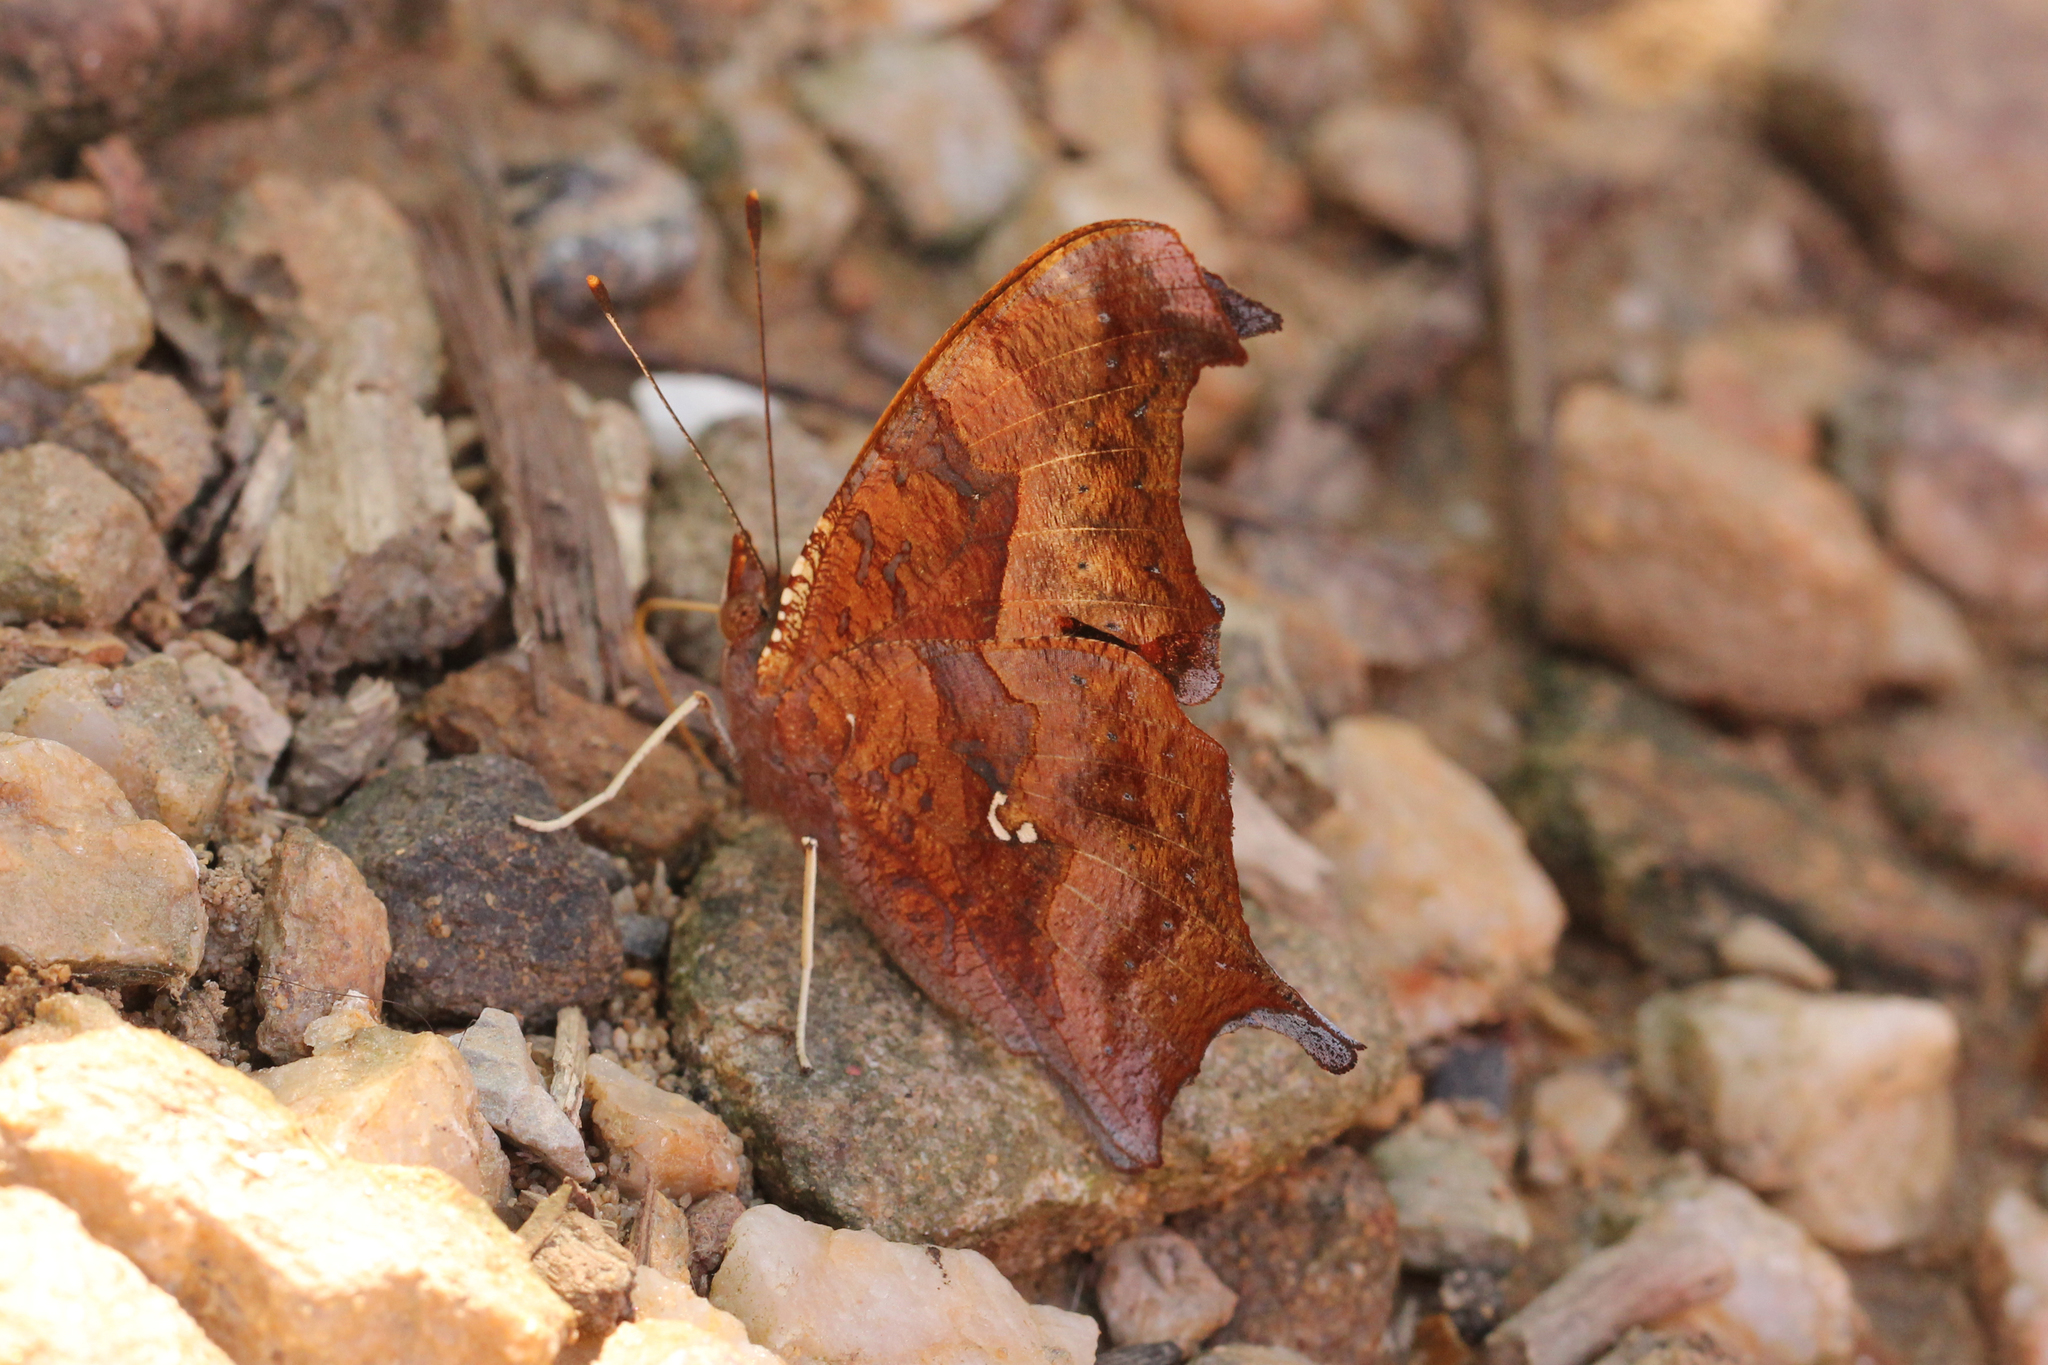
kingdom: Animalia
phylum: Arthropoda
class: Insecta
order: Lepidoptera
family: Nymphalidae
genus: Polygonia
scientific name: Polygonia interrogationis
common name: Question mark
